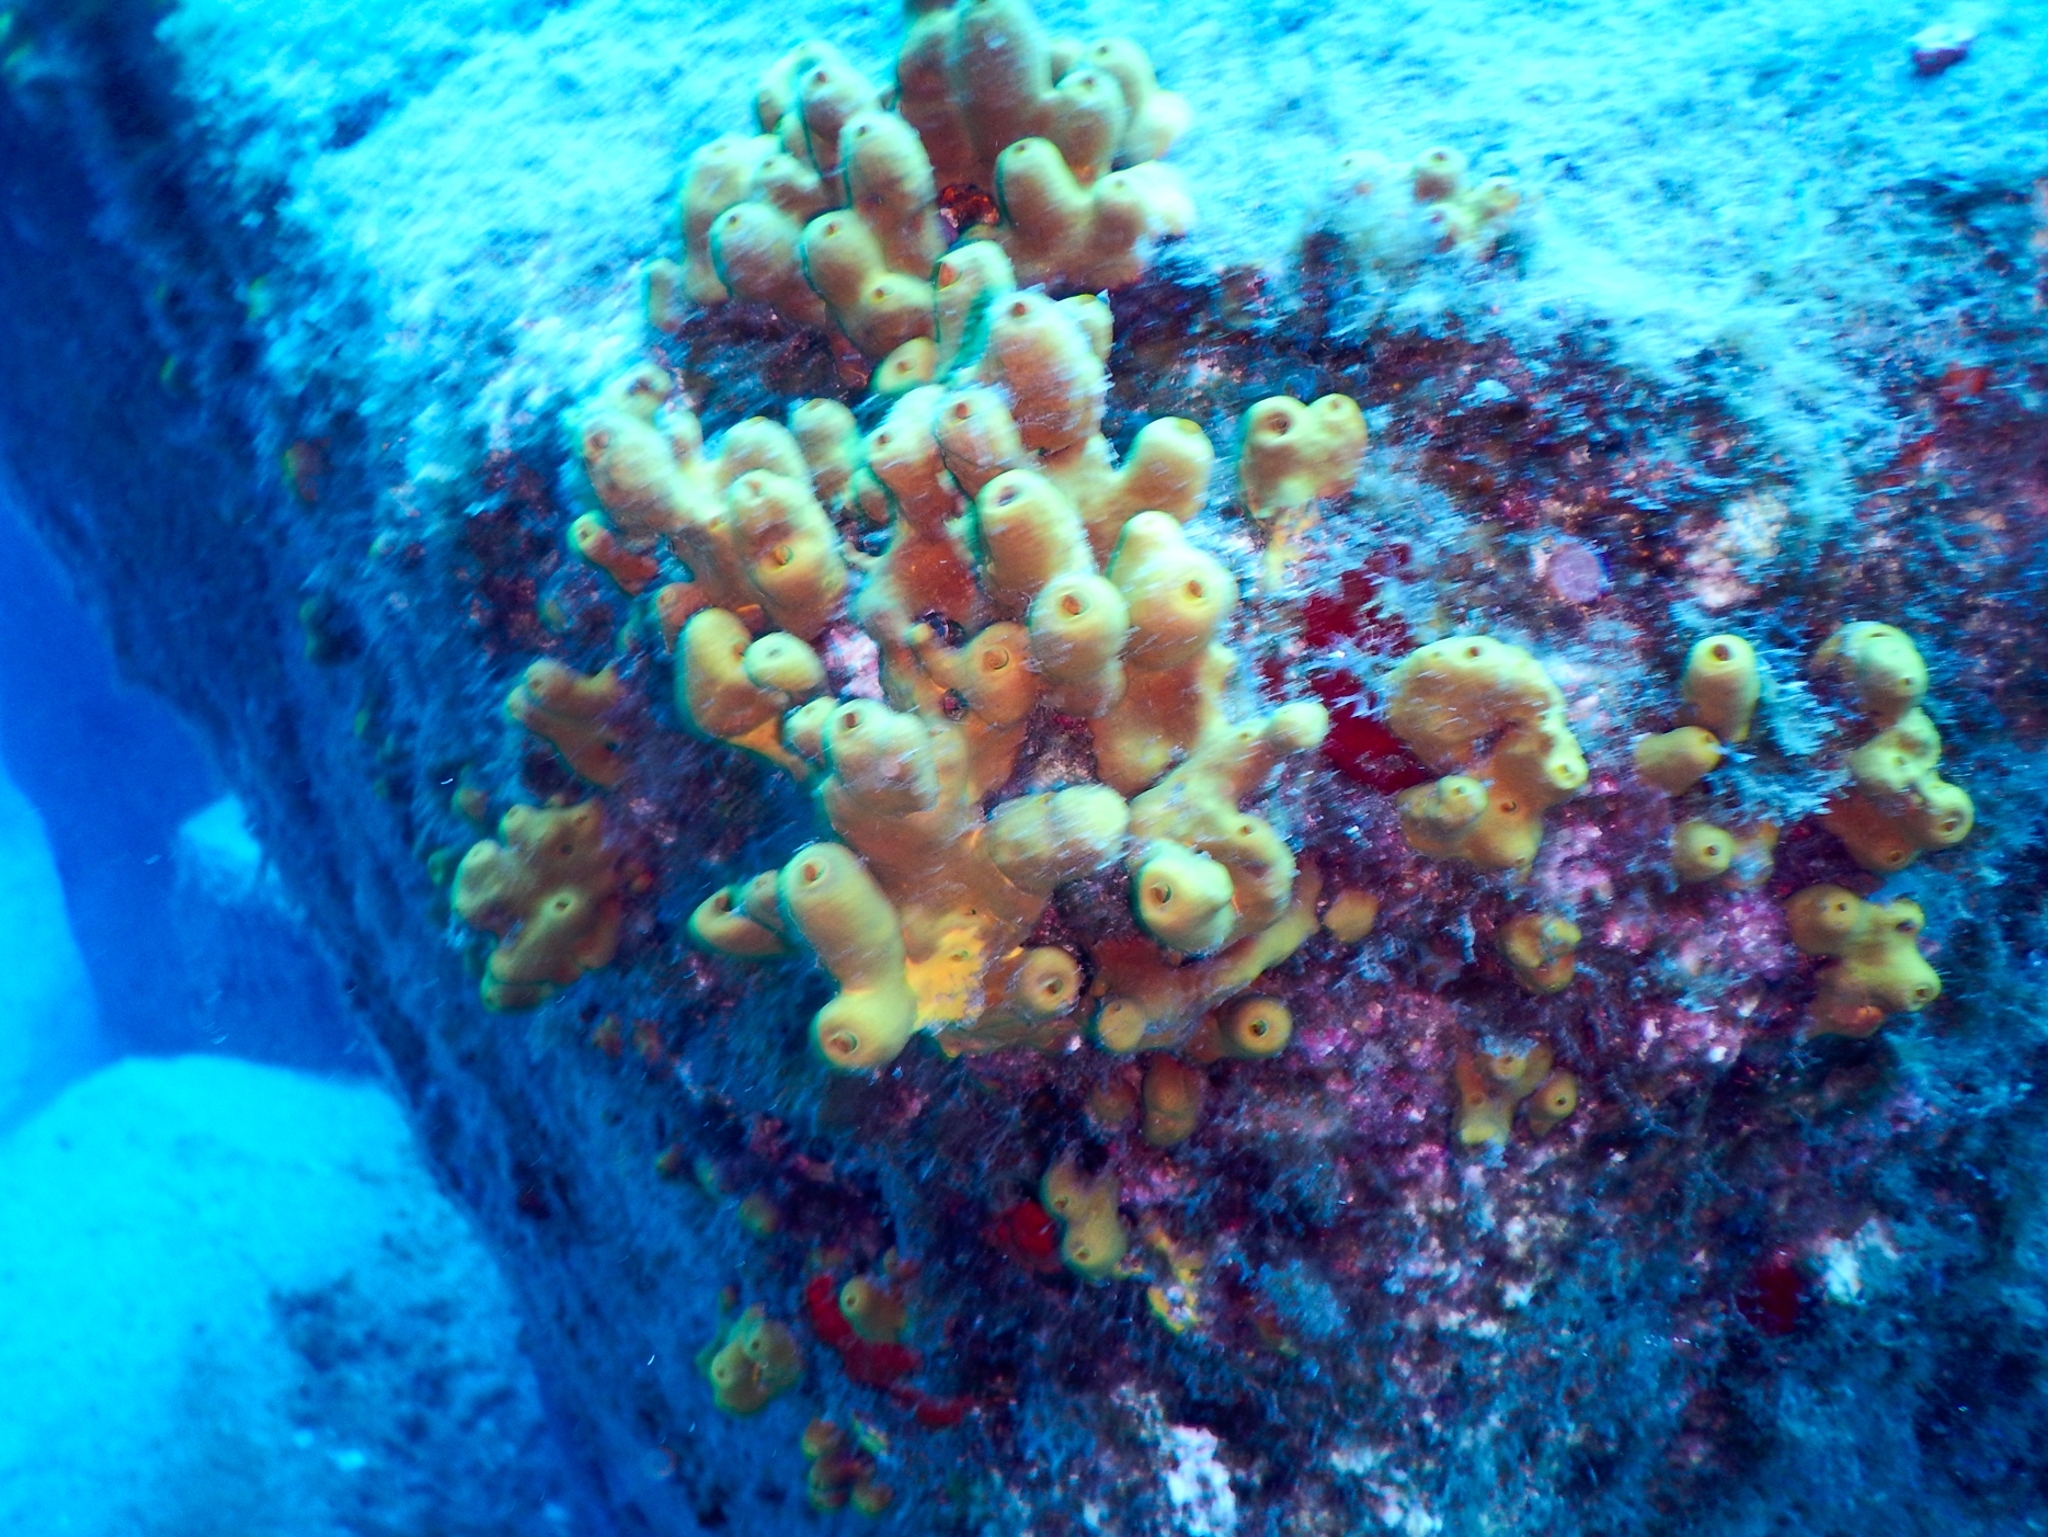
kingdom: Animalia
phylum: Porifera
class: Demospongiae
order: Verongiida
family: Aplysinidae
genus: Aplysina
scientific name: Aplysina aerophoba
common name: Aureate sponge
